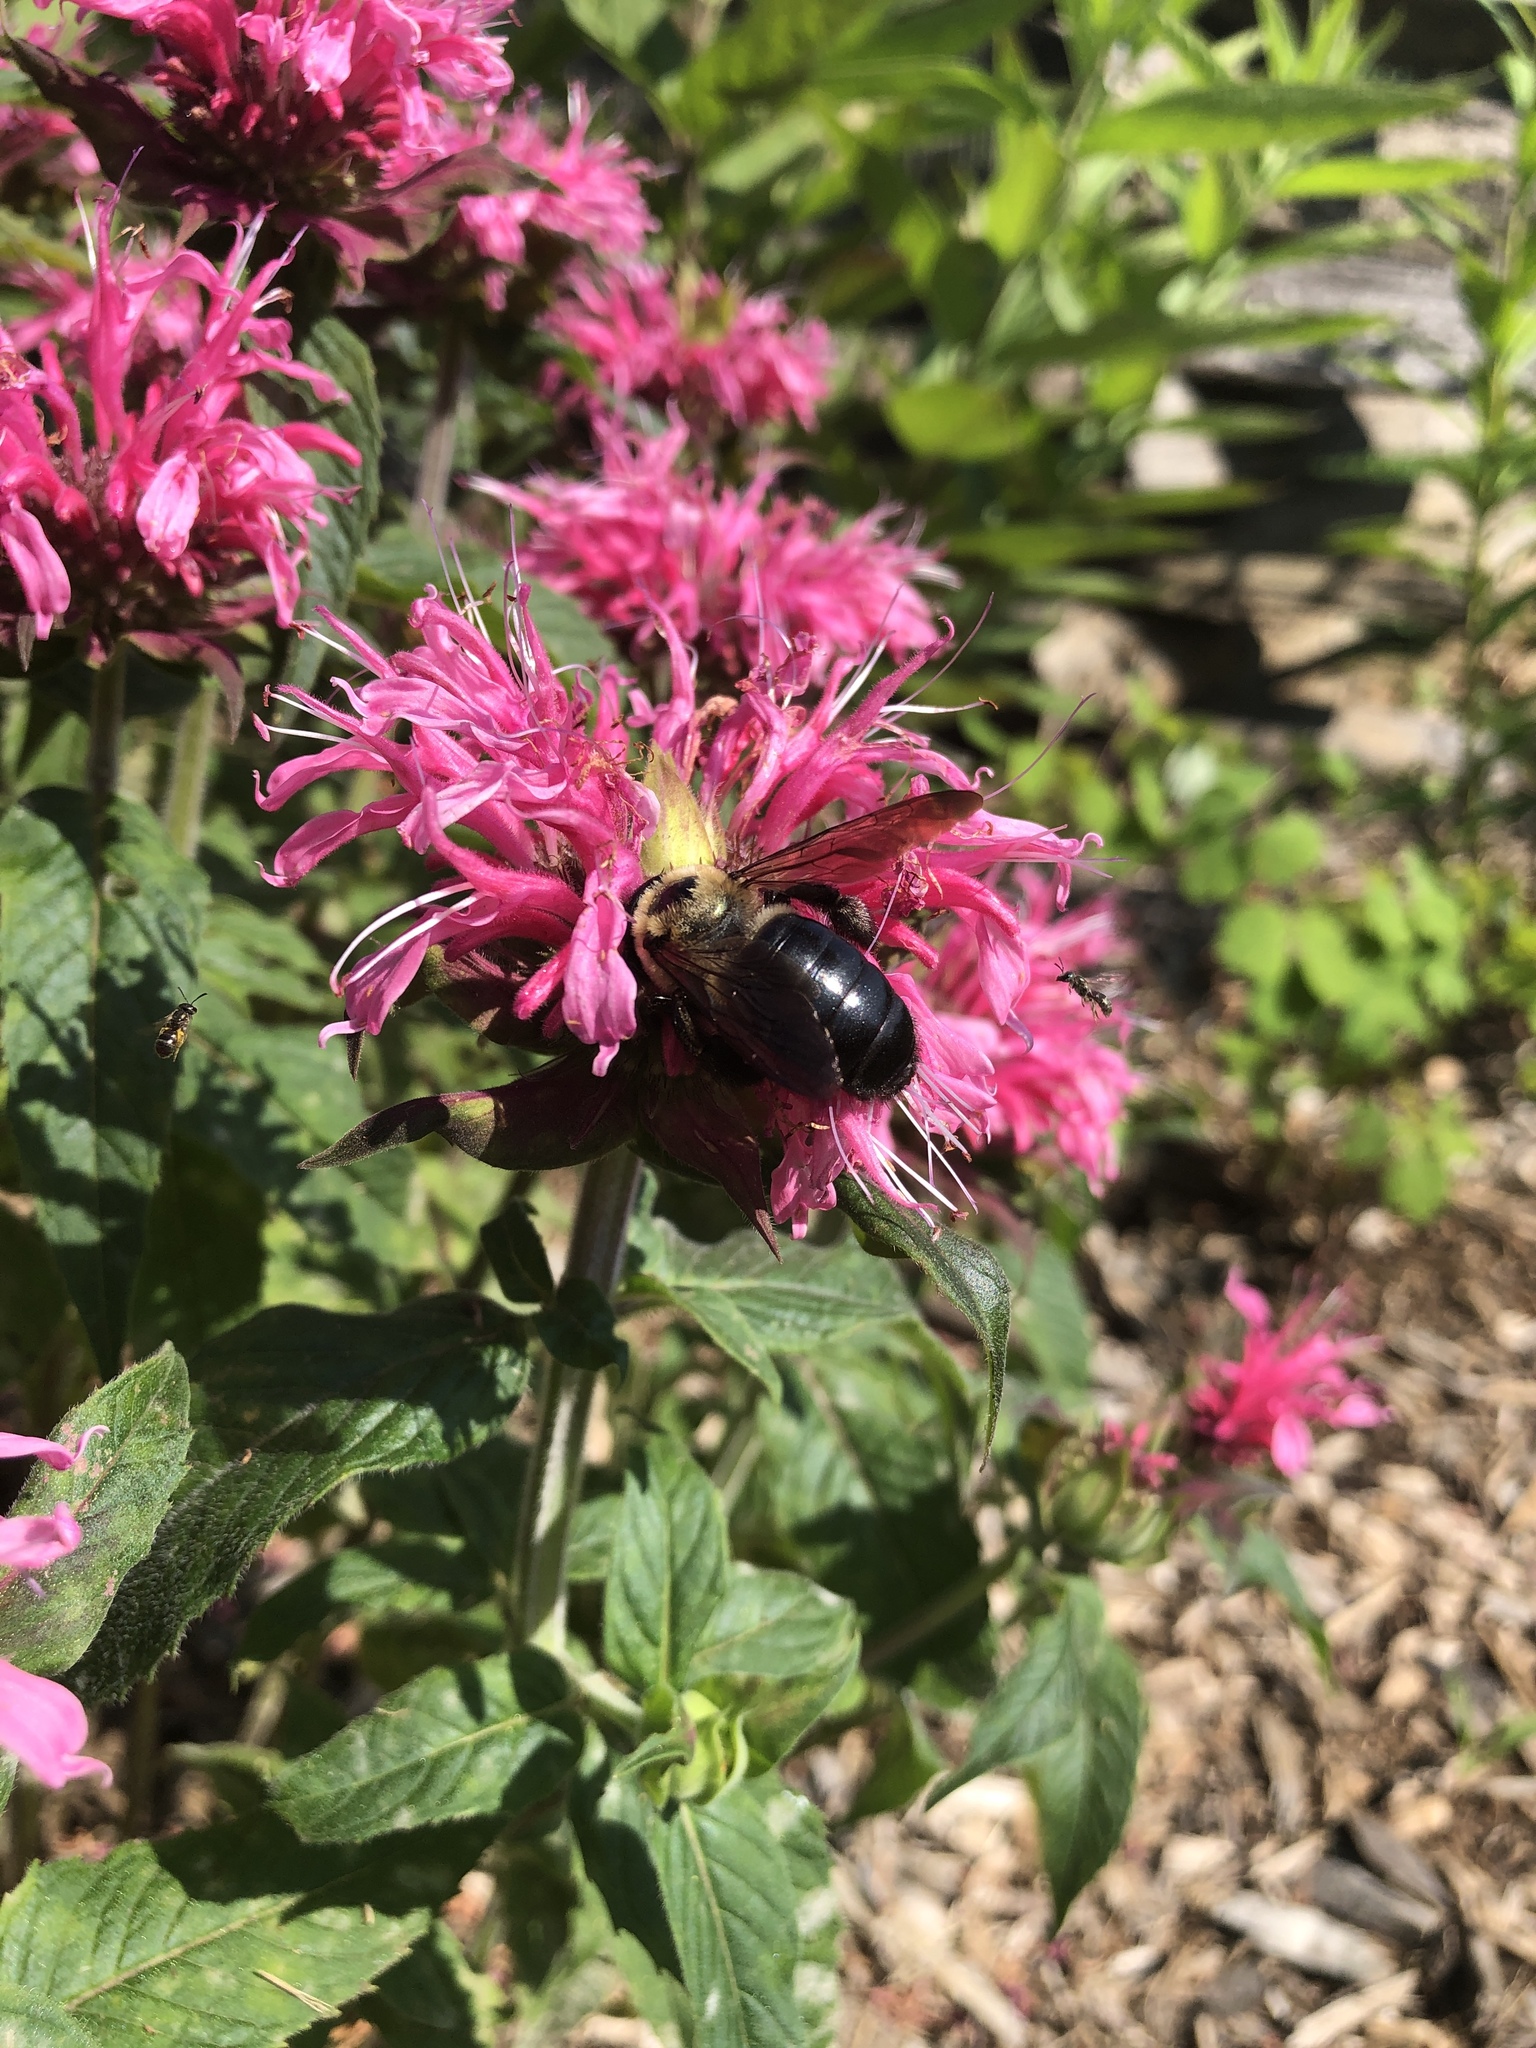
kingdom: Animalia
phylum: Arthropoda
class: Insecta
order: Hymenoptera
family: Apidae
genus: Xylocopa
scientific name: Xylocopa virginica
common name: Carpenter bee
